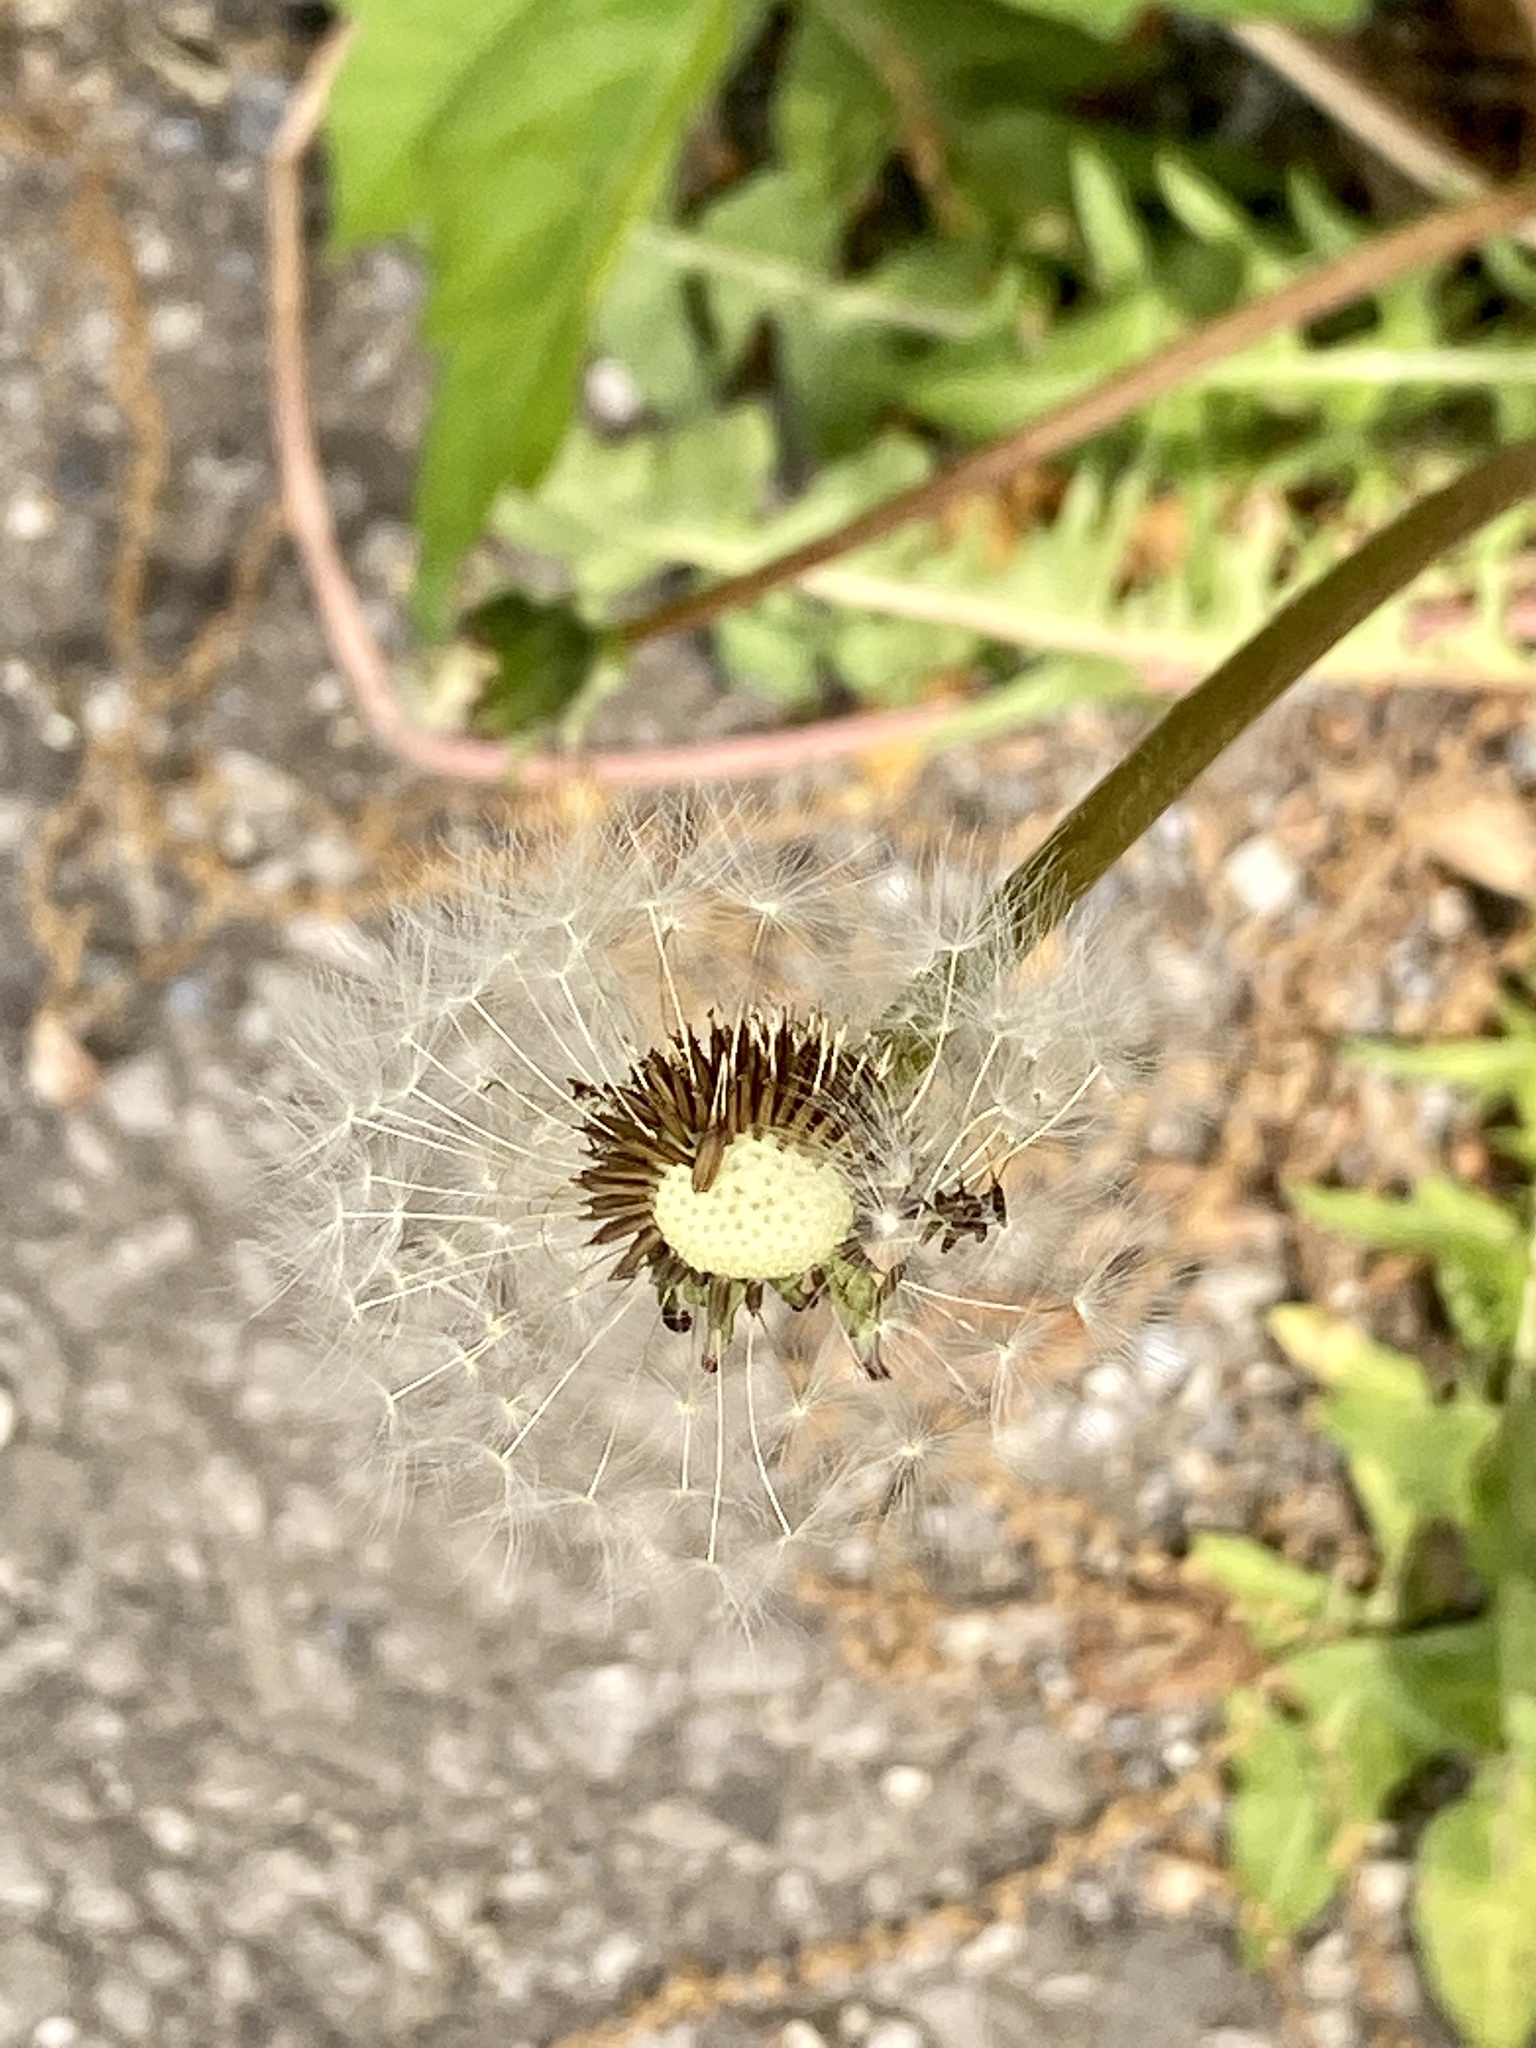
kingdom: Plantae
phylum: Tracheophyta
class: Magnoliopsida
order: Asterales
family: Asteraceae
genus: Taraxacum
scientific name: Taraxacum officinale
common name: Common dandelion
